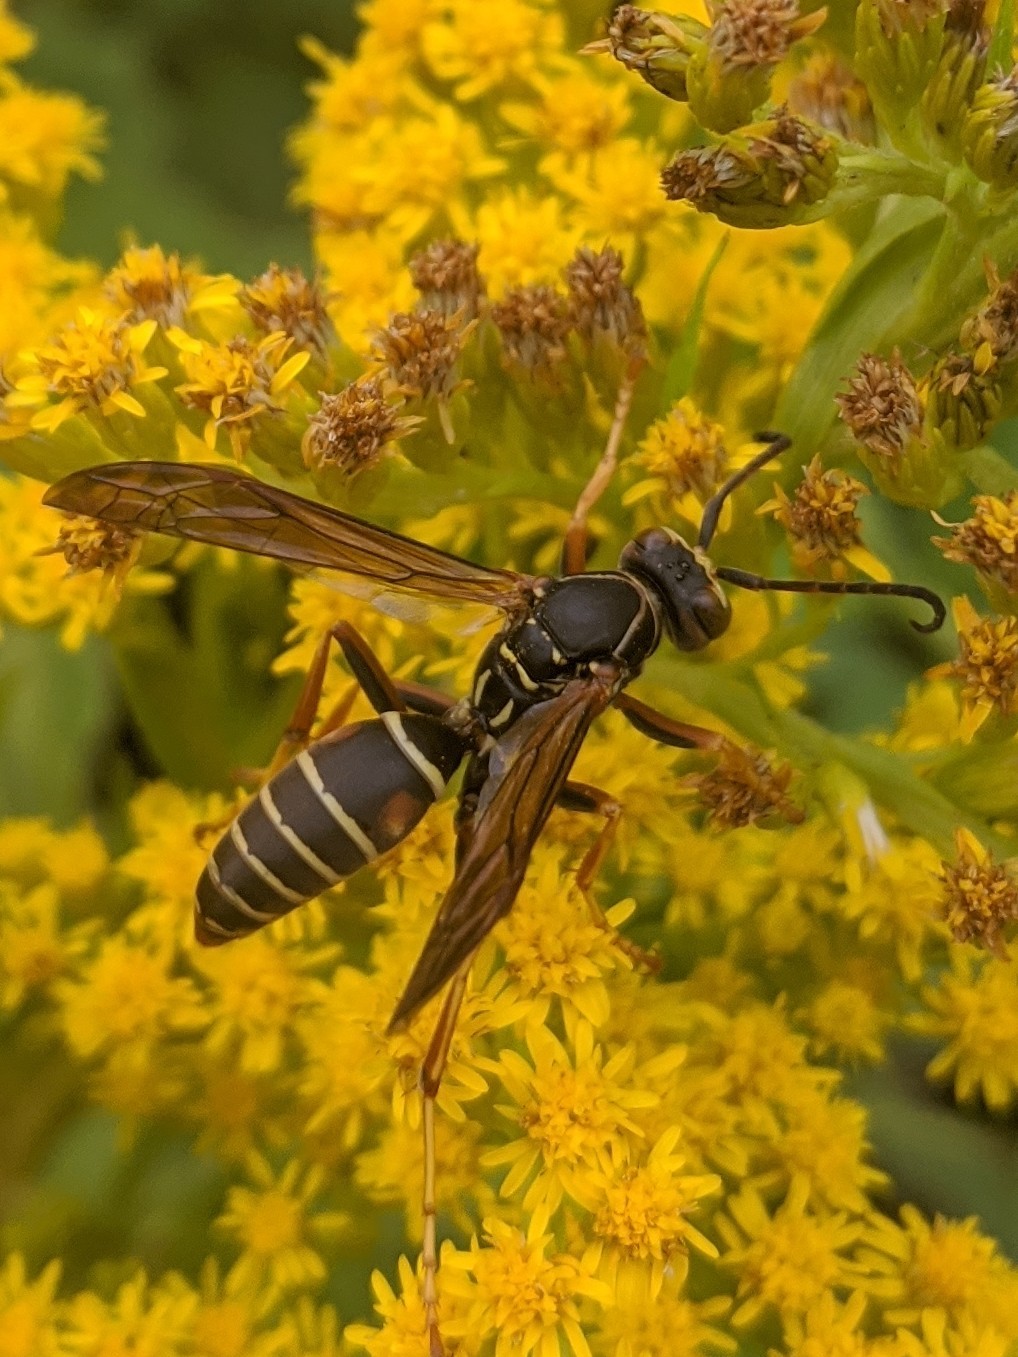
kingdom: Animalia
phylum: Arthropoda
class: Insecta
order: Hymenoptera
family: Eumenidae
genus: Polistes
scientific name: Polistes fuscatus
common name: Dark paper wasp
